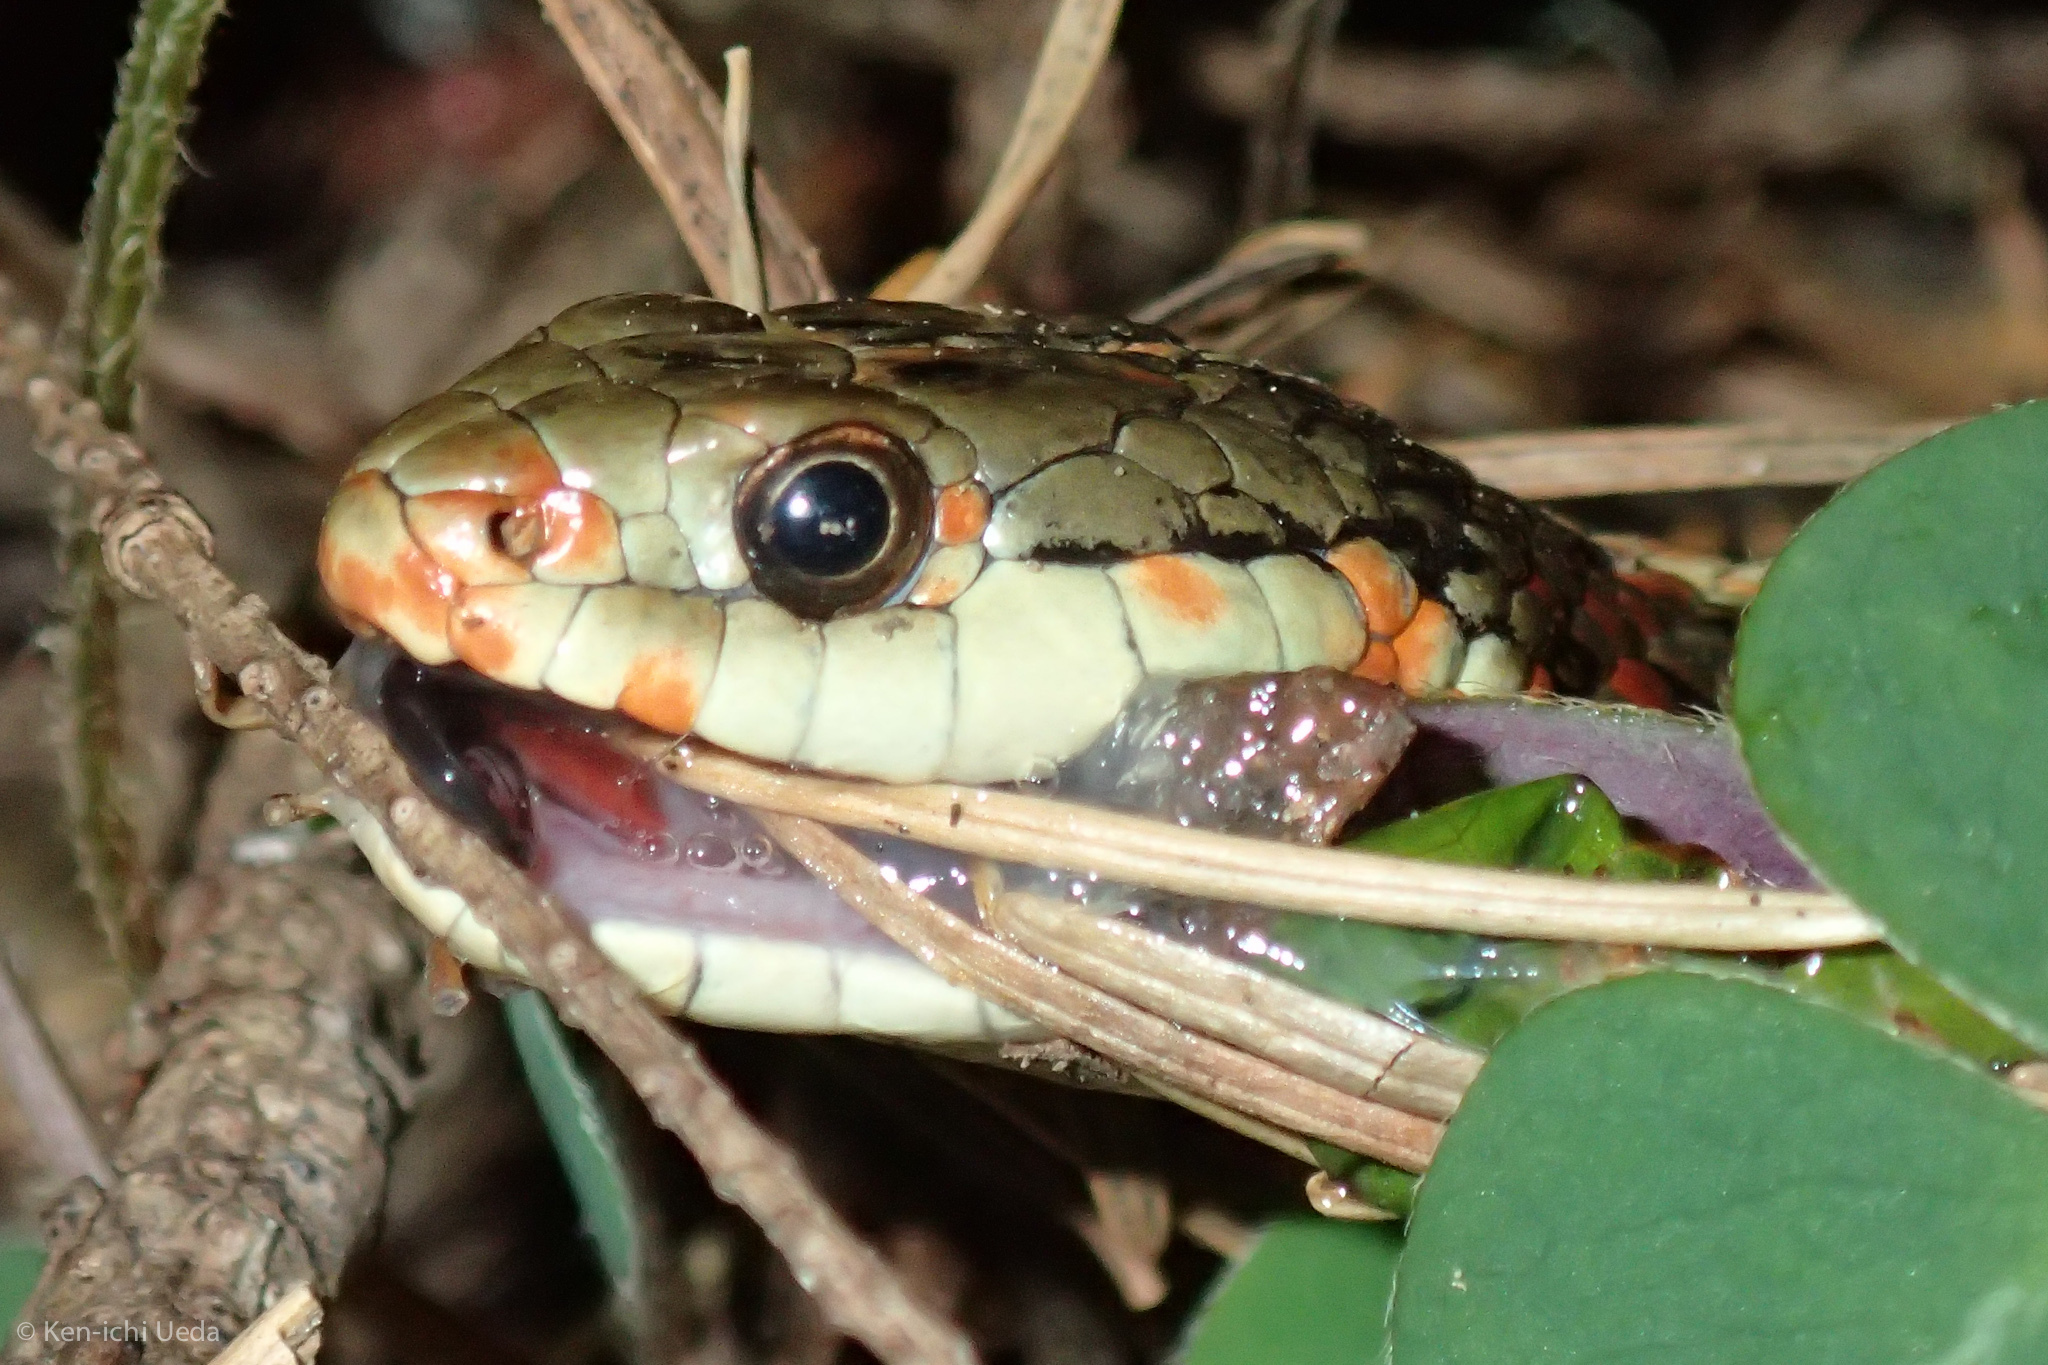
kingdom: Animalia
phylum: Chordata
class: Squamata
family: Colubridae
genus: Thamnophis
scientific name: Thamnophis elegans
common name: Western terrestrial garter snake
